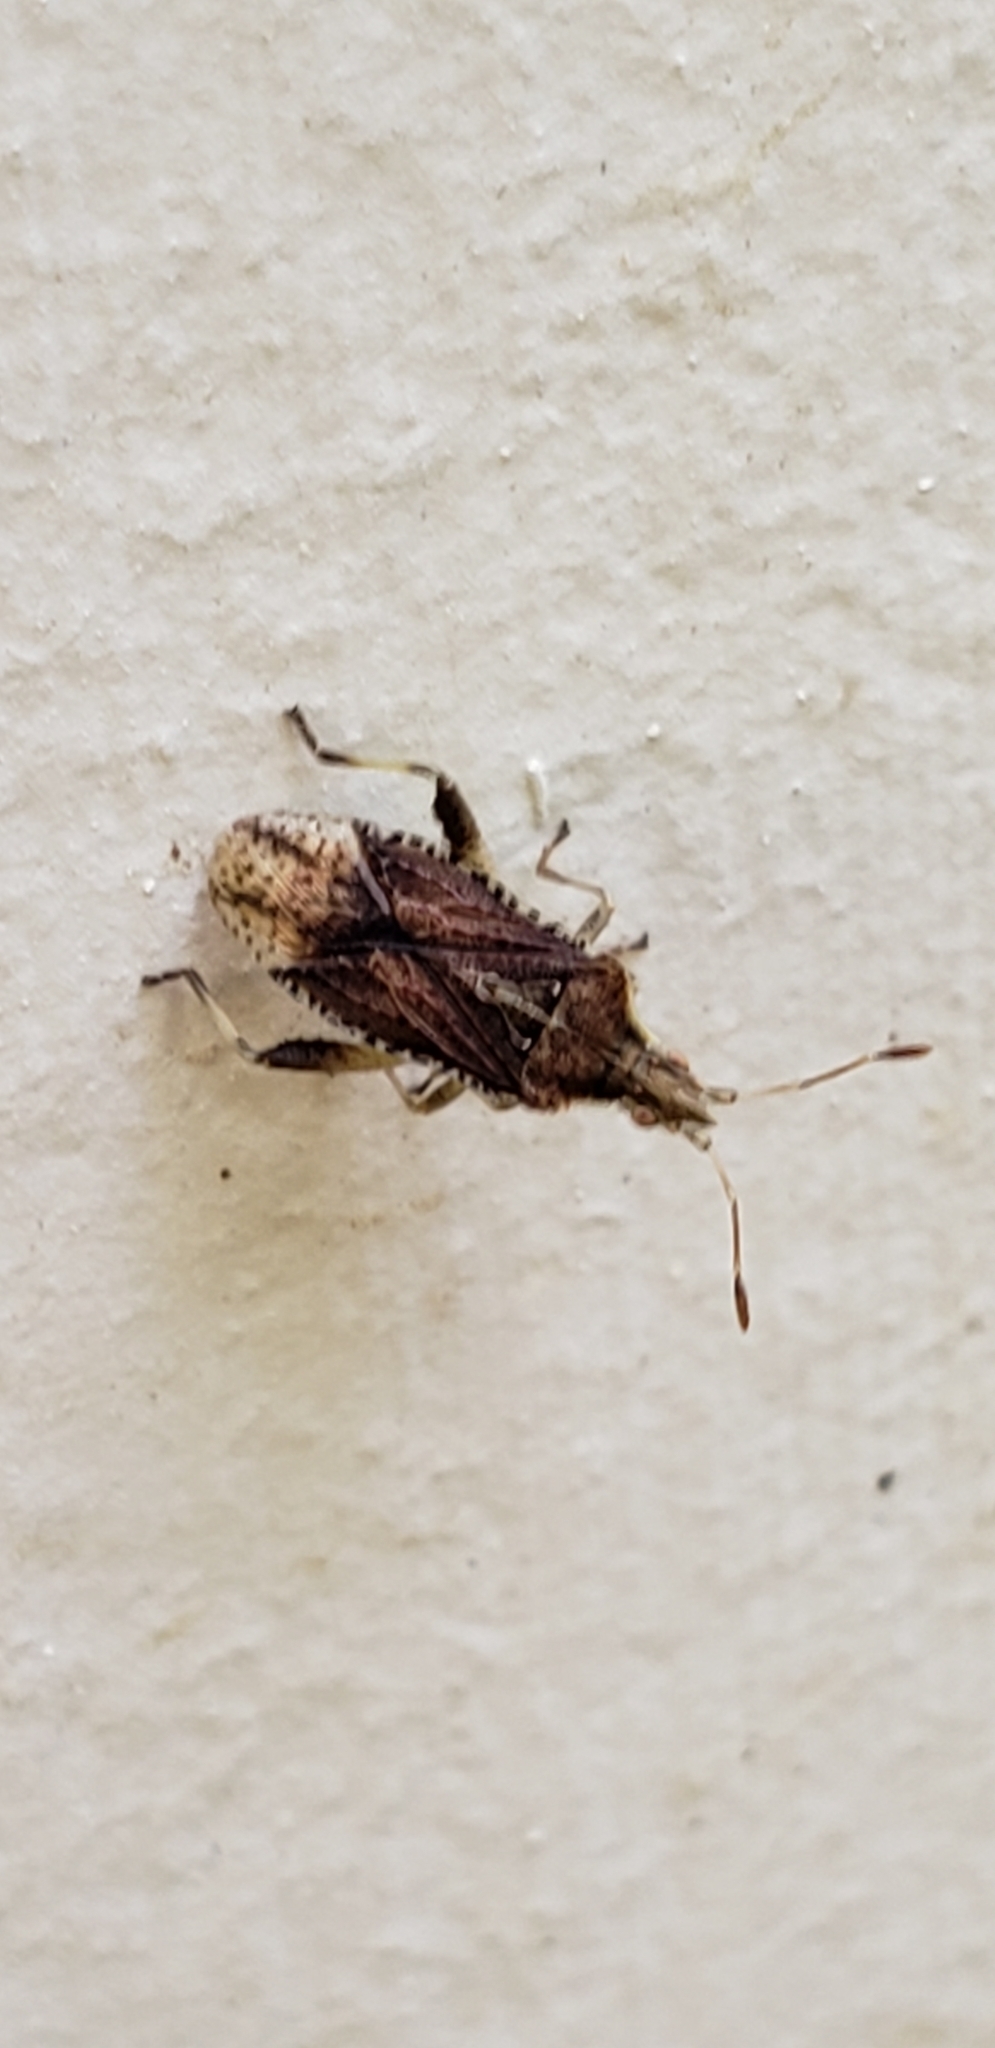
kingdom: Animalia
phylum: Arthropoda
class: Insecta
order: Hemiptera
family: Rhopalidae
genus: Harmostes
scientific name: Harmostes fraterculus
